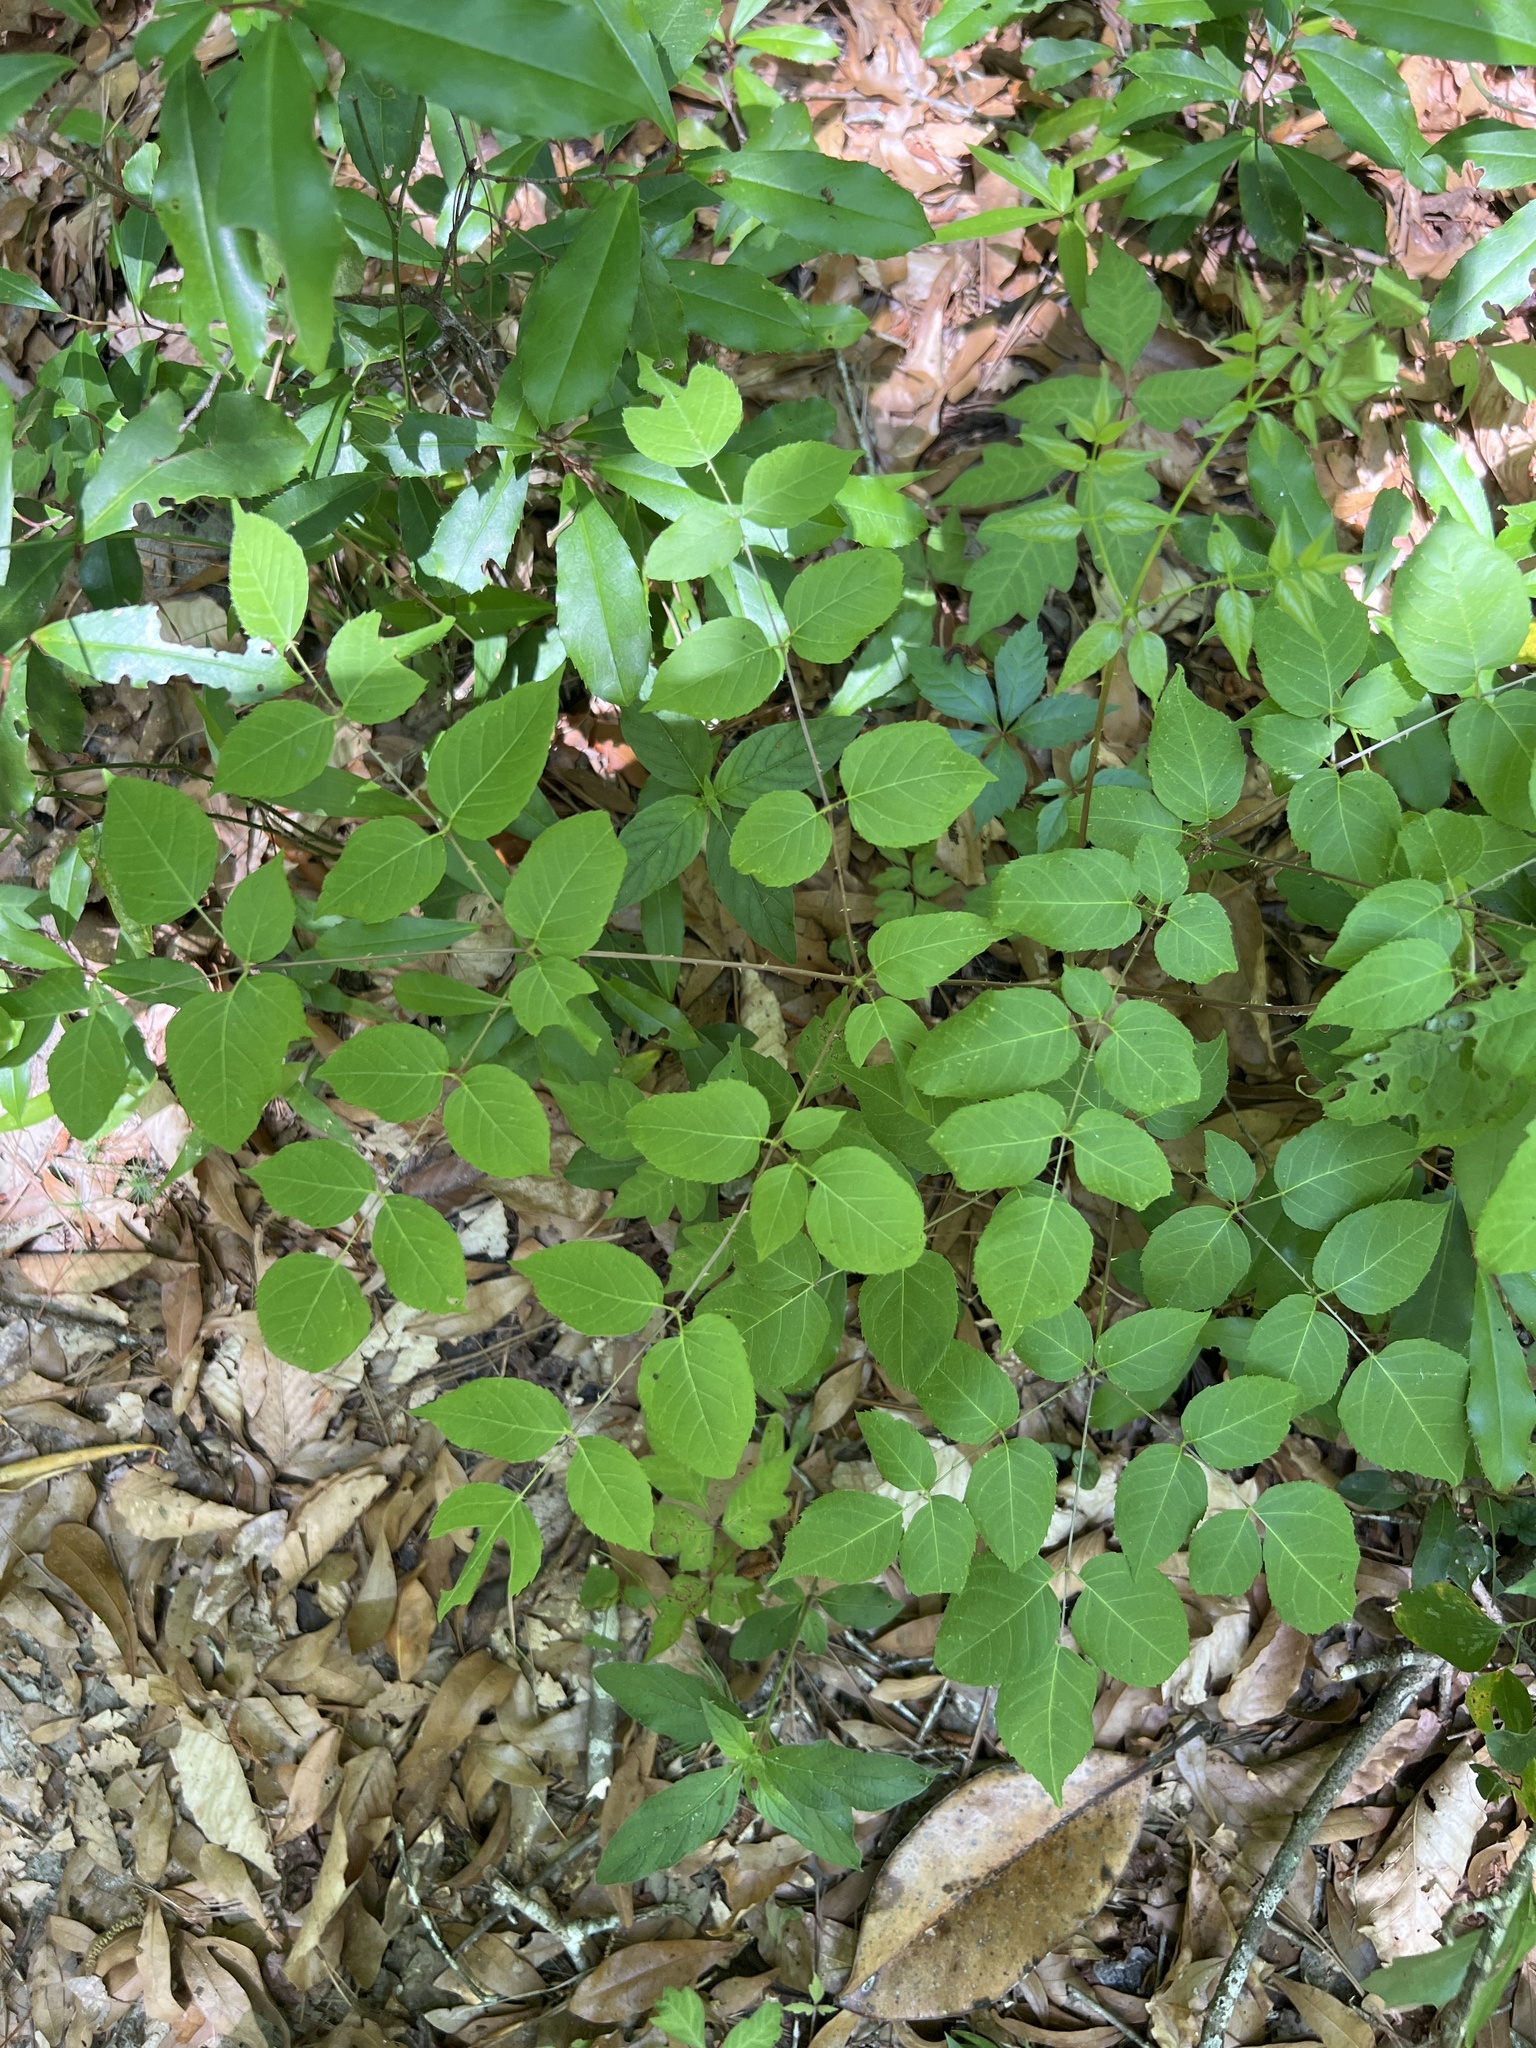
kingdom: Plantae
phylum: Tracheophyta
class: Magnoliopsida
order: Apiales
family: Araliaceae
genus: Aralia
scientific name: Aralia spinosa
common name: Hercules'-club
